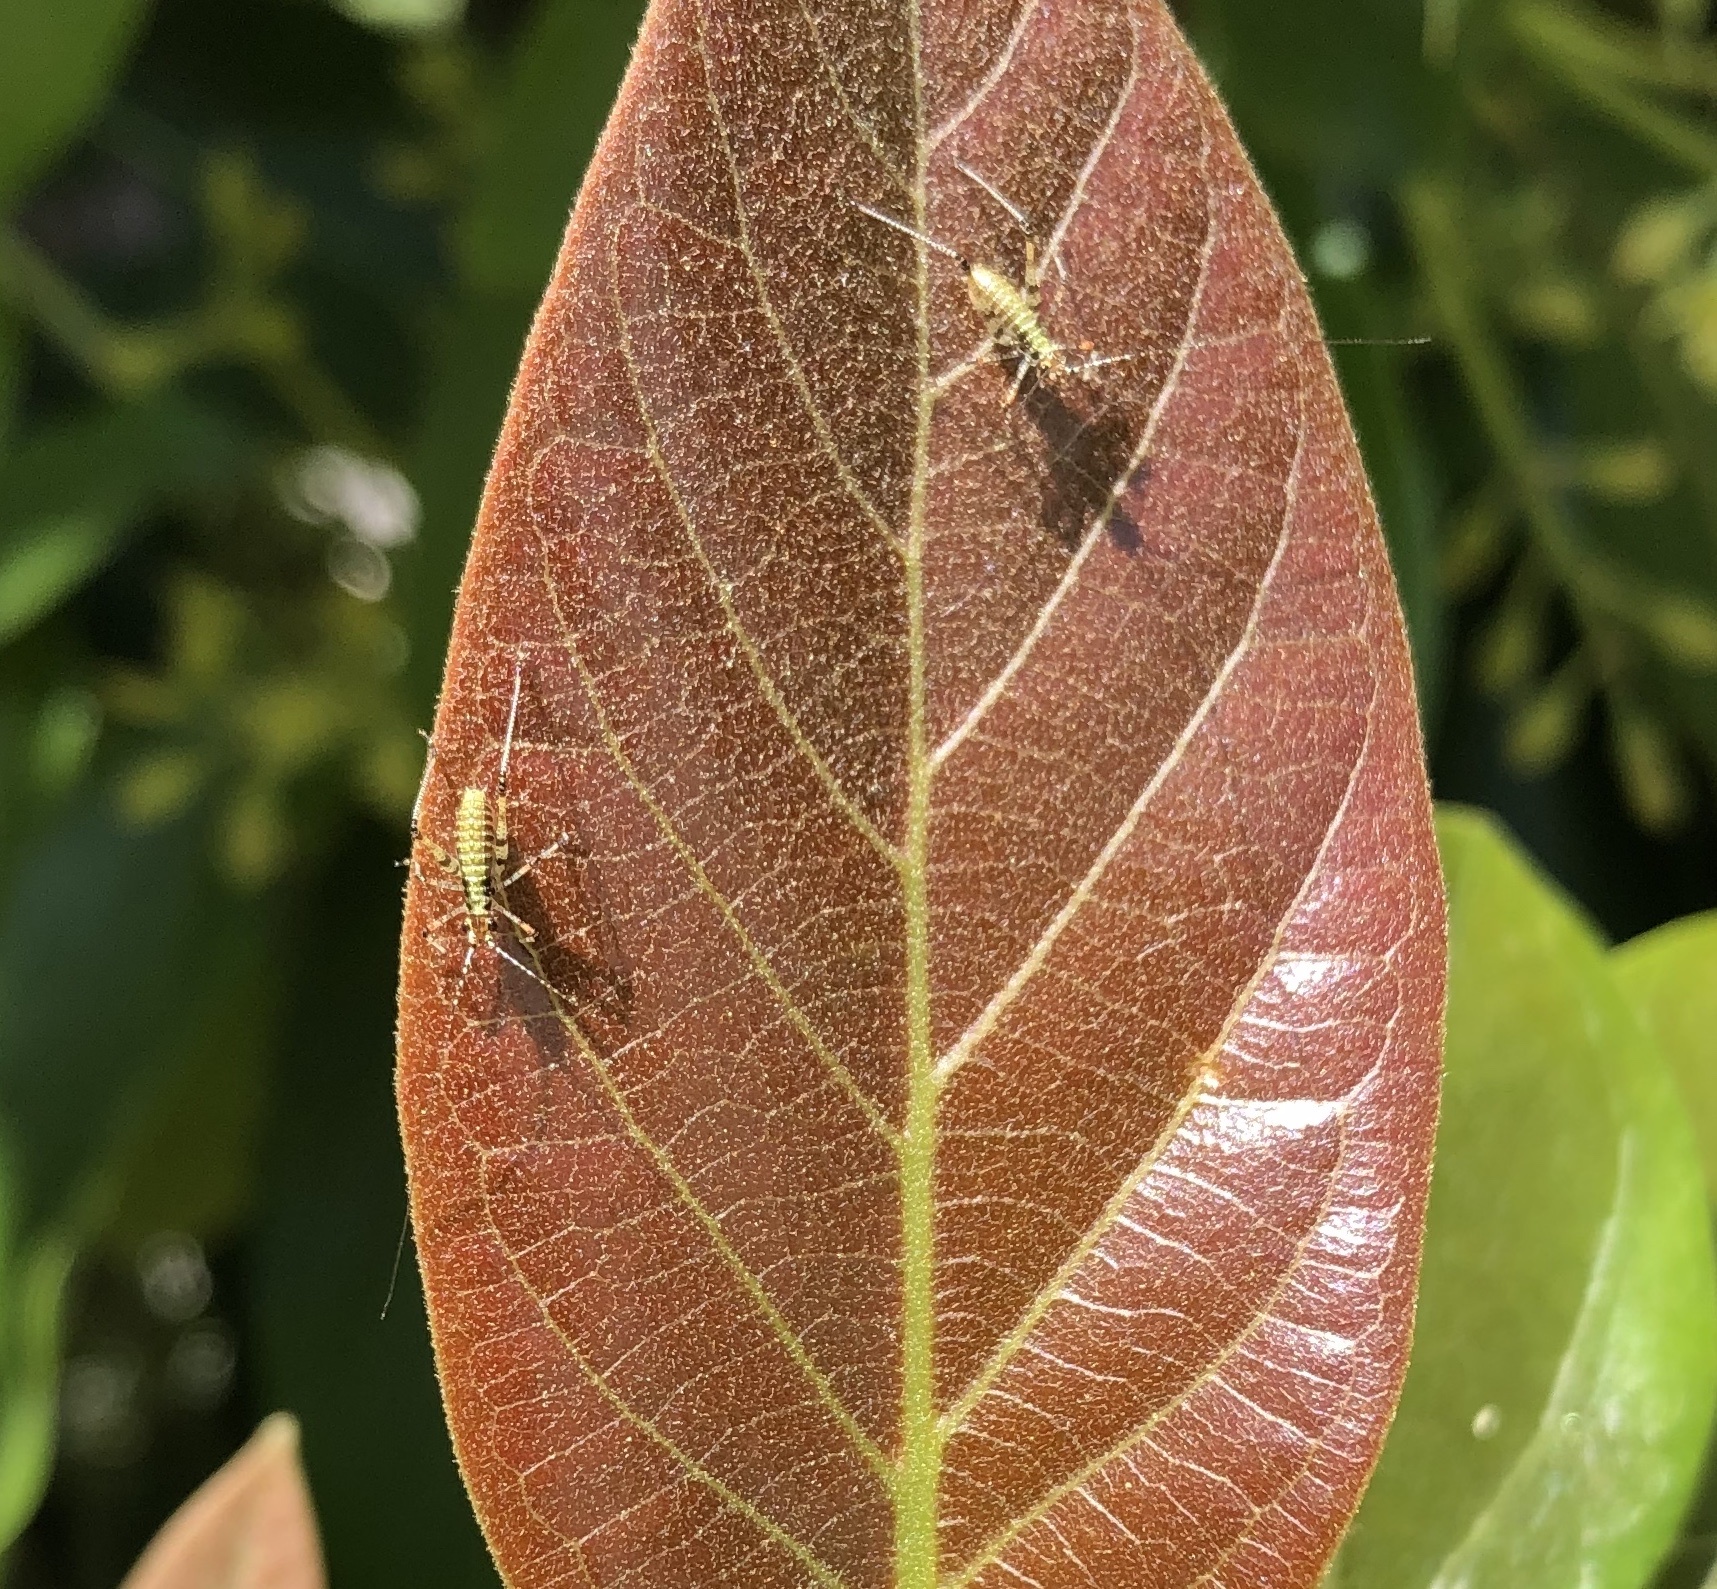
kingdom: Animalia
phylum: Arthropoda
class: Insecta
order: Orthoptera
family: Tettigoniidae
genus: Phaneroptera
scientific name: Phaneroptera nana
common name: Southern sickle bush-cricket
